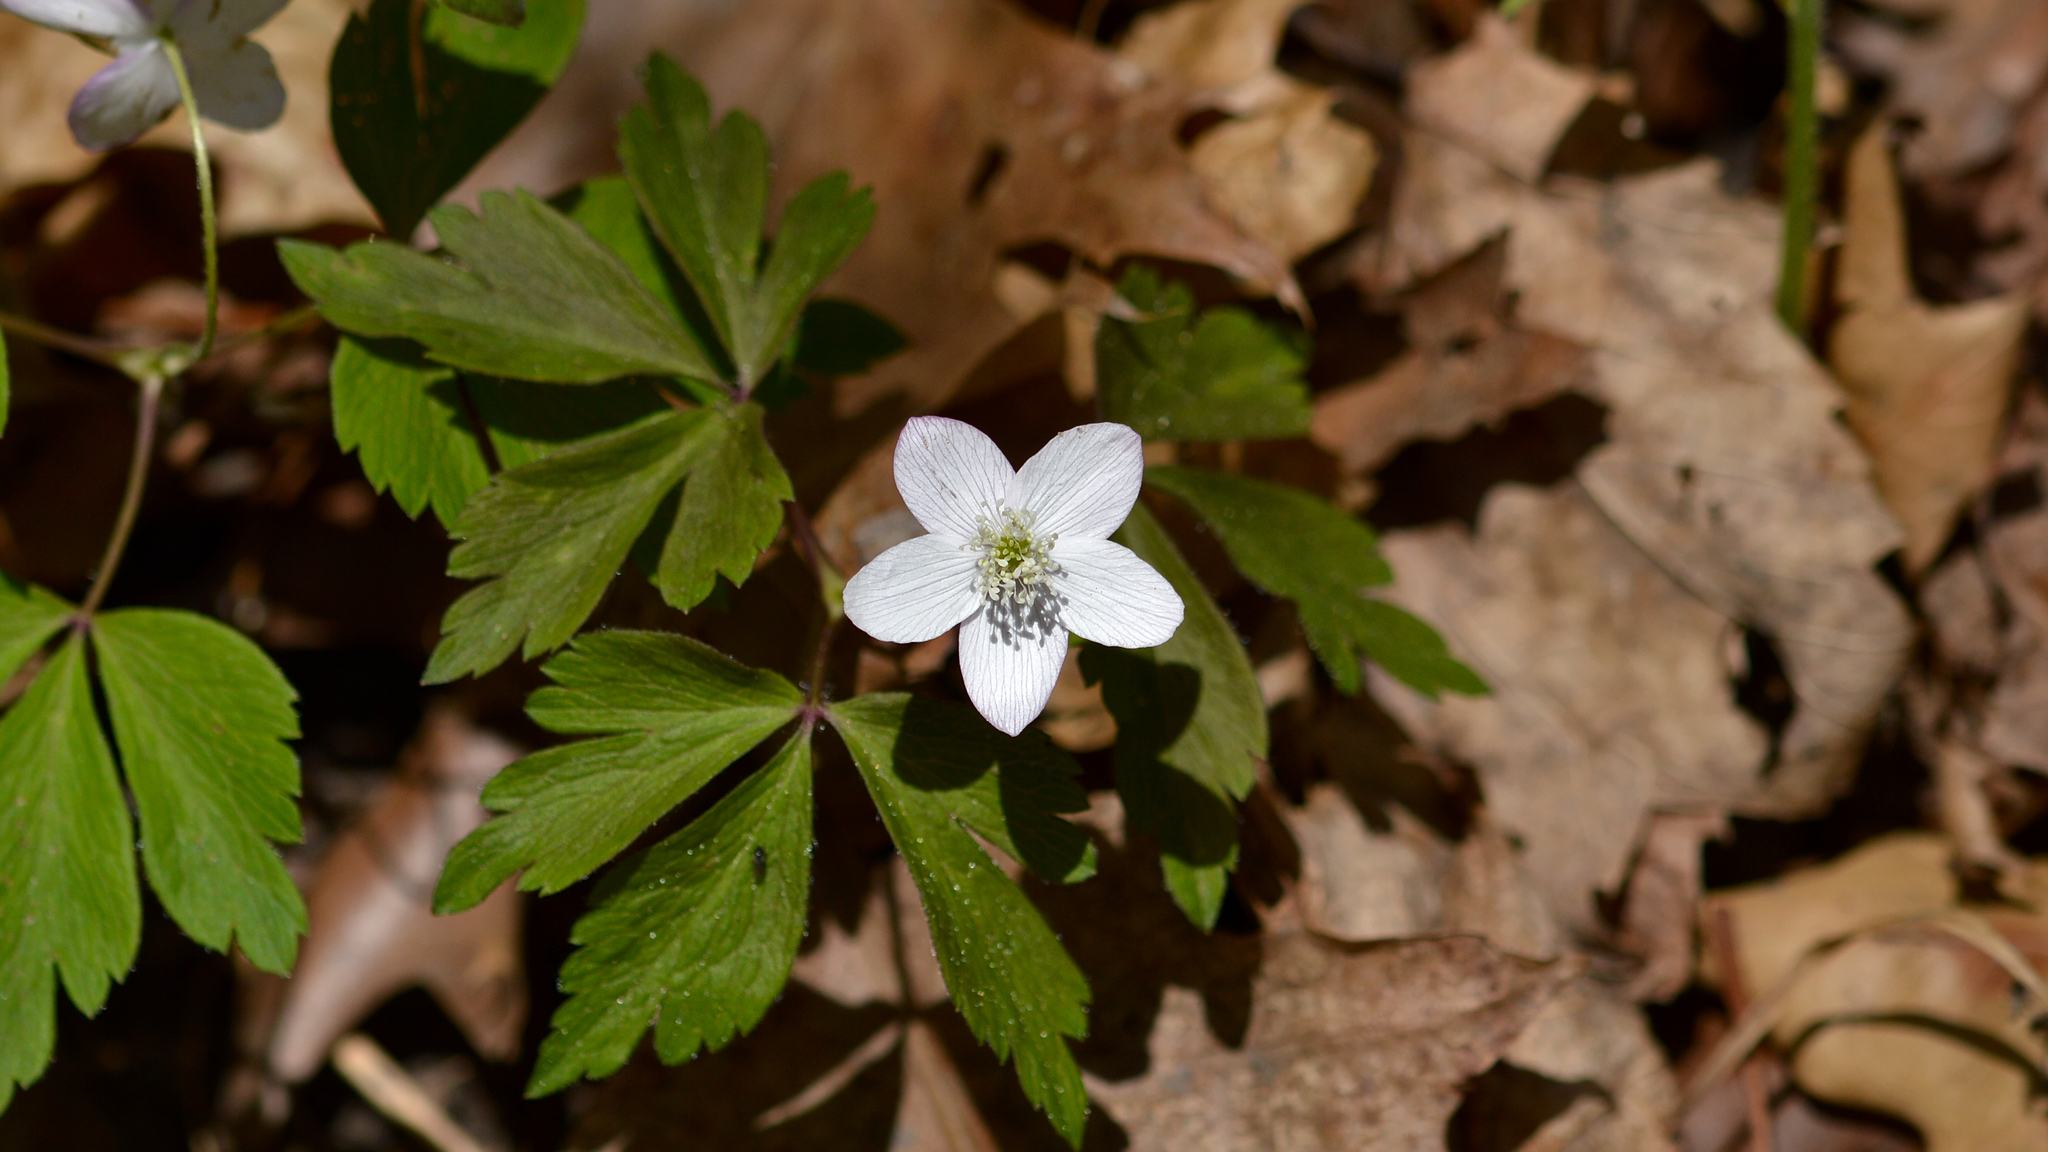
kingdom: Plantae
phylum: Tracheophyta
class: Magnoliopsida
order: Ranunculales
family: Ranunculaceae
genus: Anemone
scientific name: Anemone quinquefolia
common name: Wood anemone
